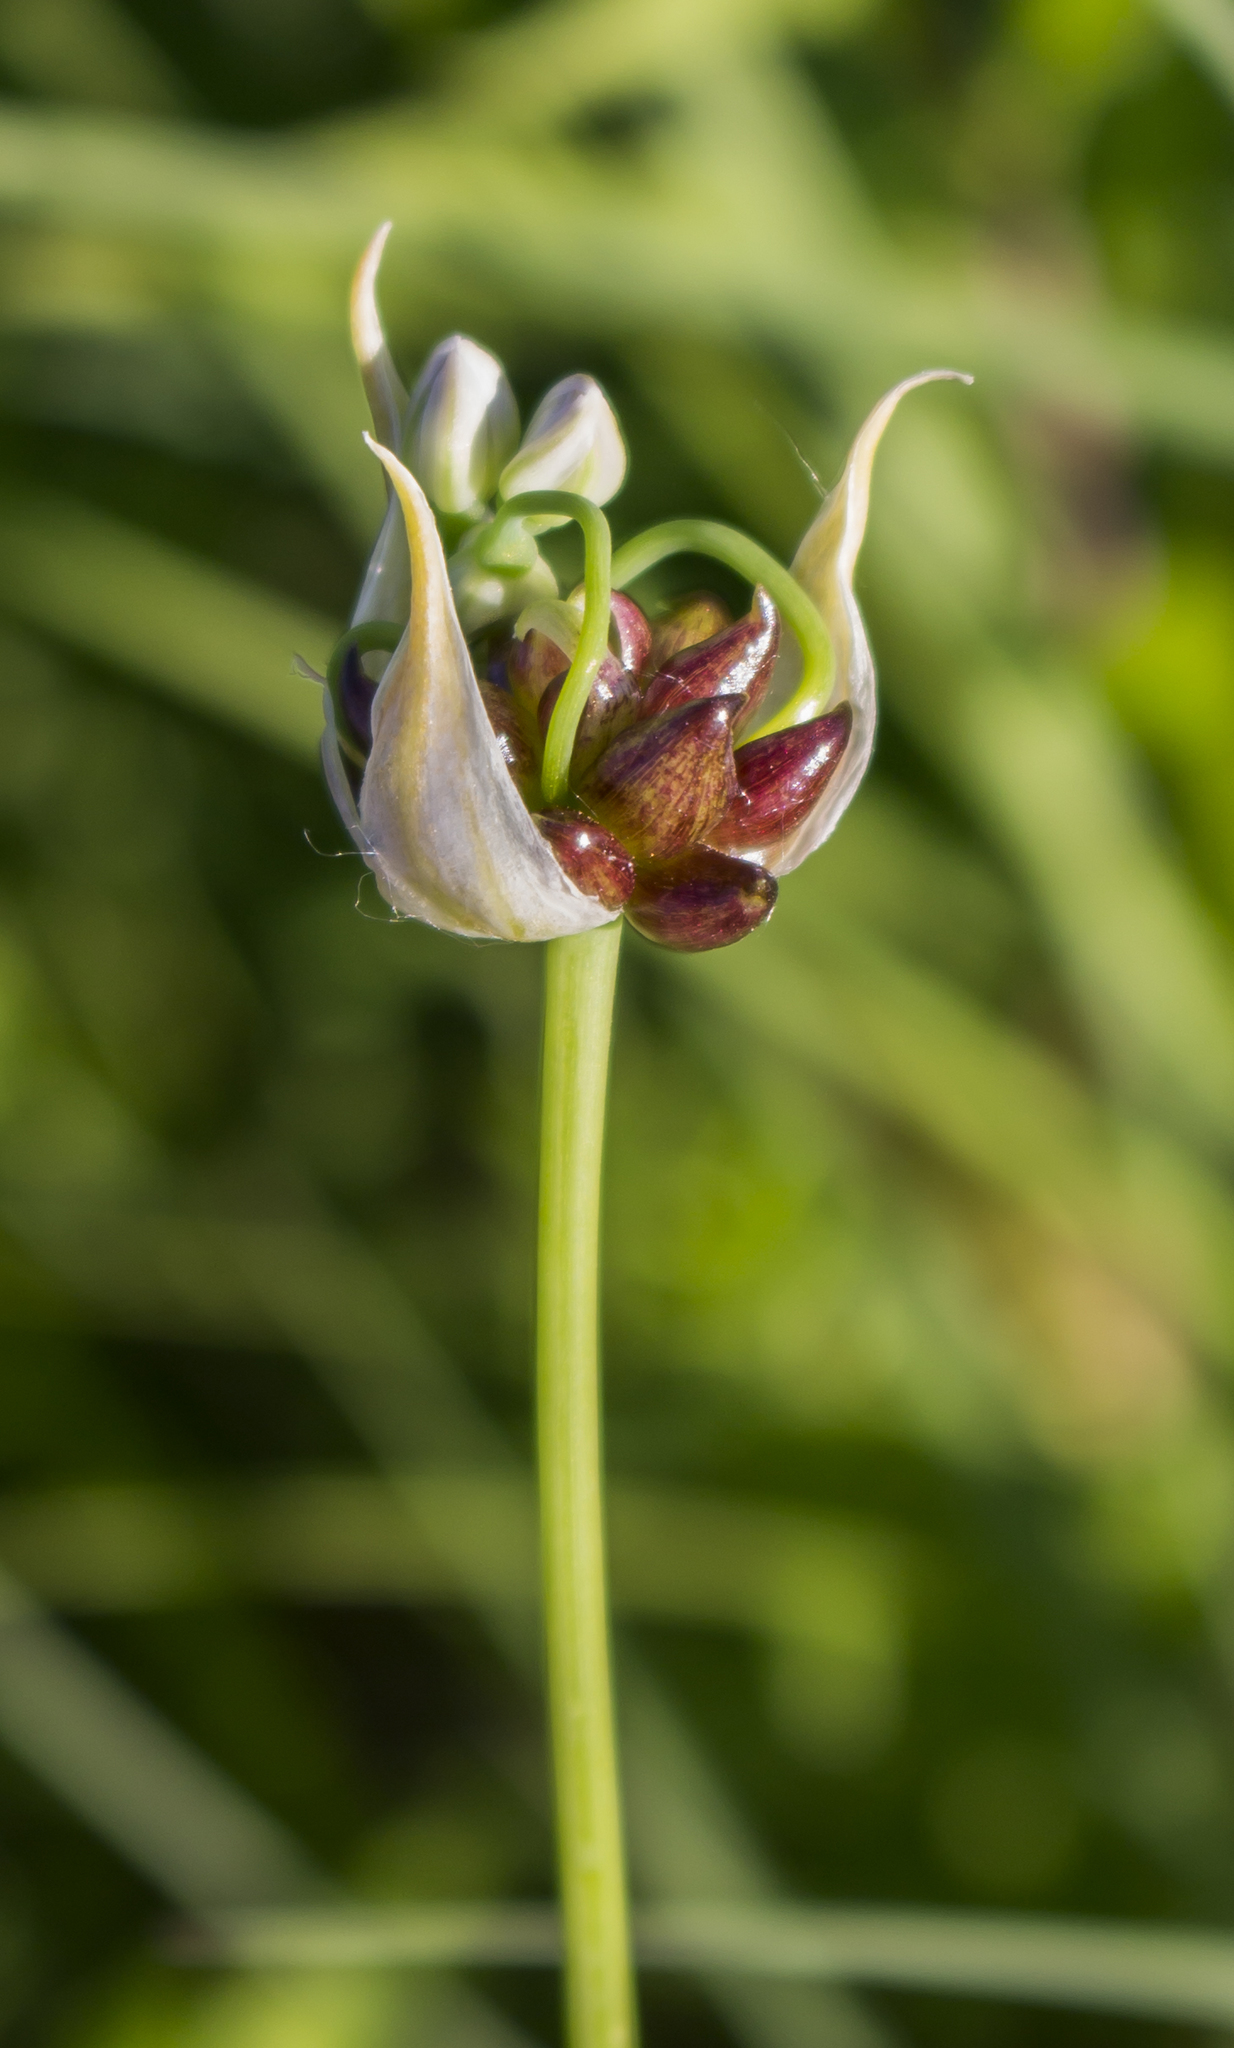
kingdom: Plantae
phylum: Tracheophyta
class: Liliopsida
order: Asparagales
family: Amaryllidaceae
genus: Allium
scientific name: Allium canadense
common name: Meadow garlic
